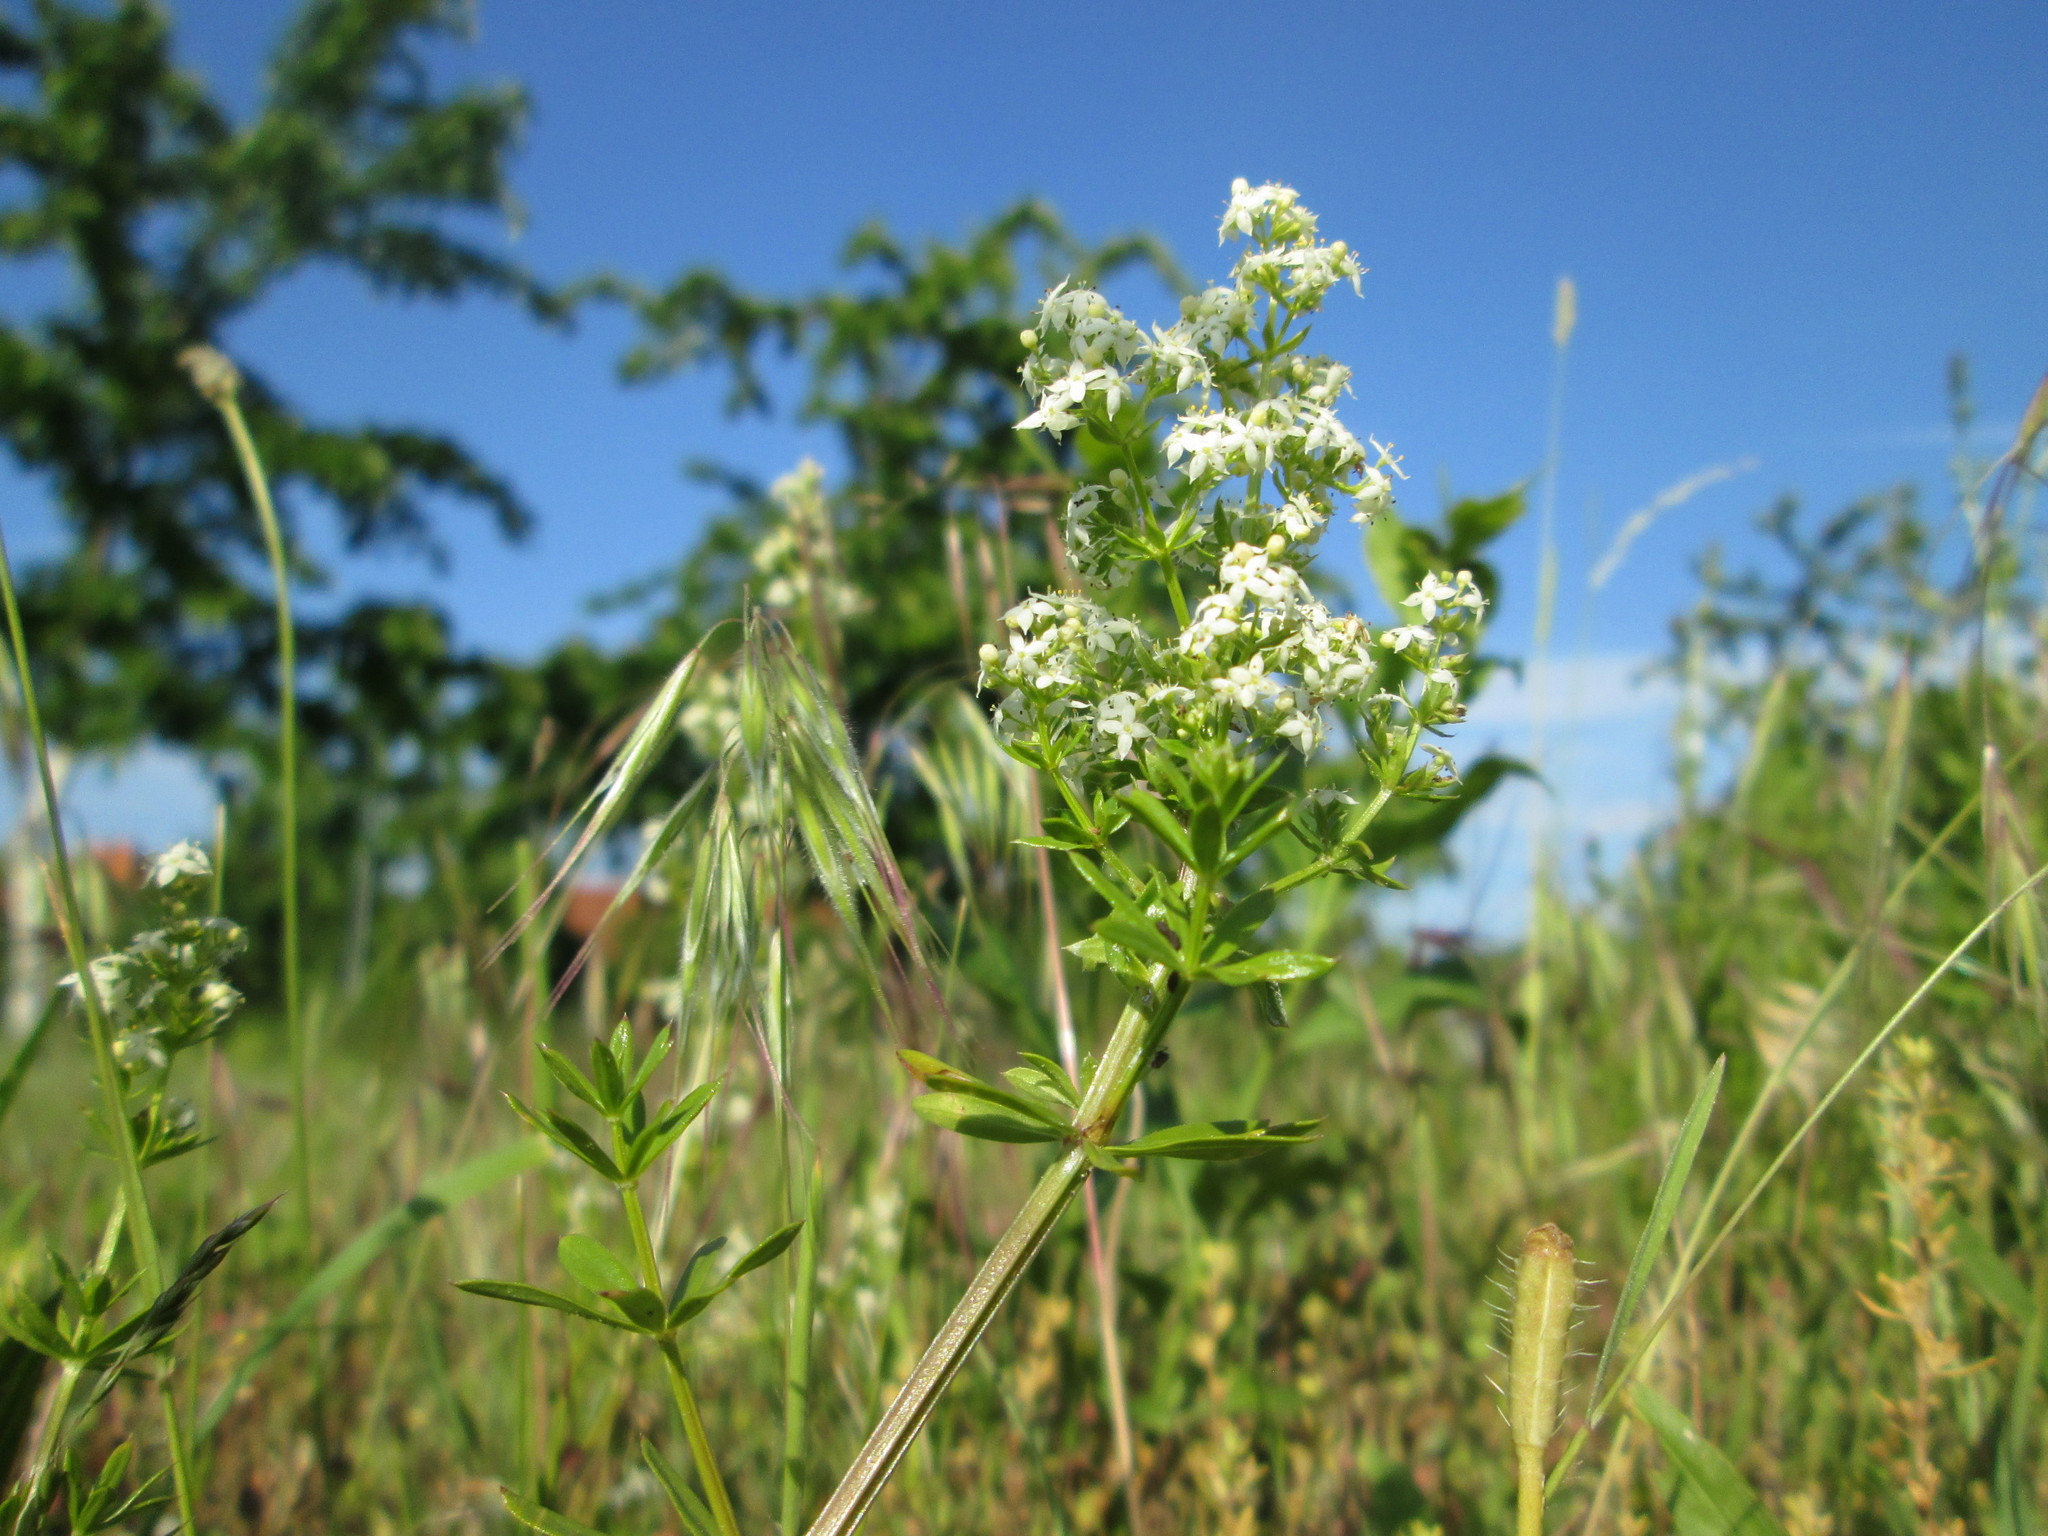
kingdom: Plantae
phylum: Tracheophyta
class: Magnoliopsida
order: Gentianales
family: Rubiaceae
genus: Galium
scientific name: Galium mollugo
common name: Hedge bedstraw
